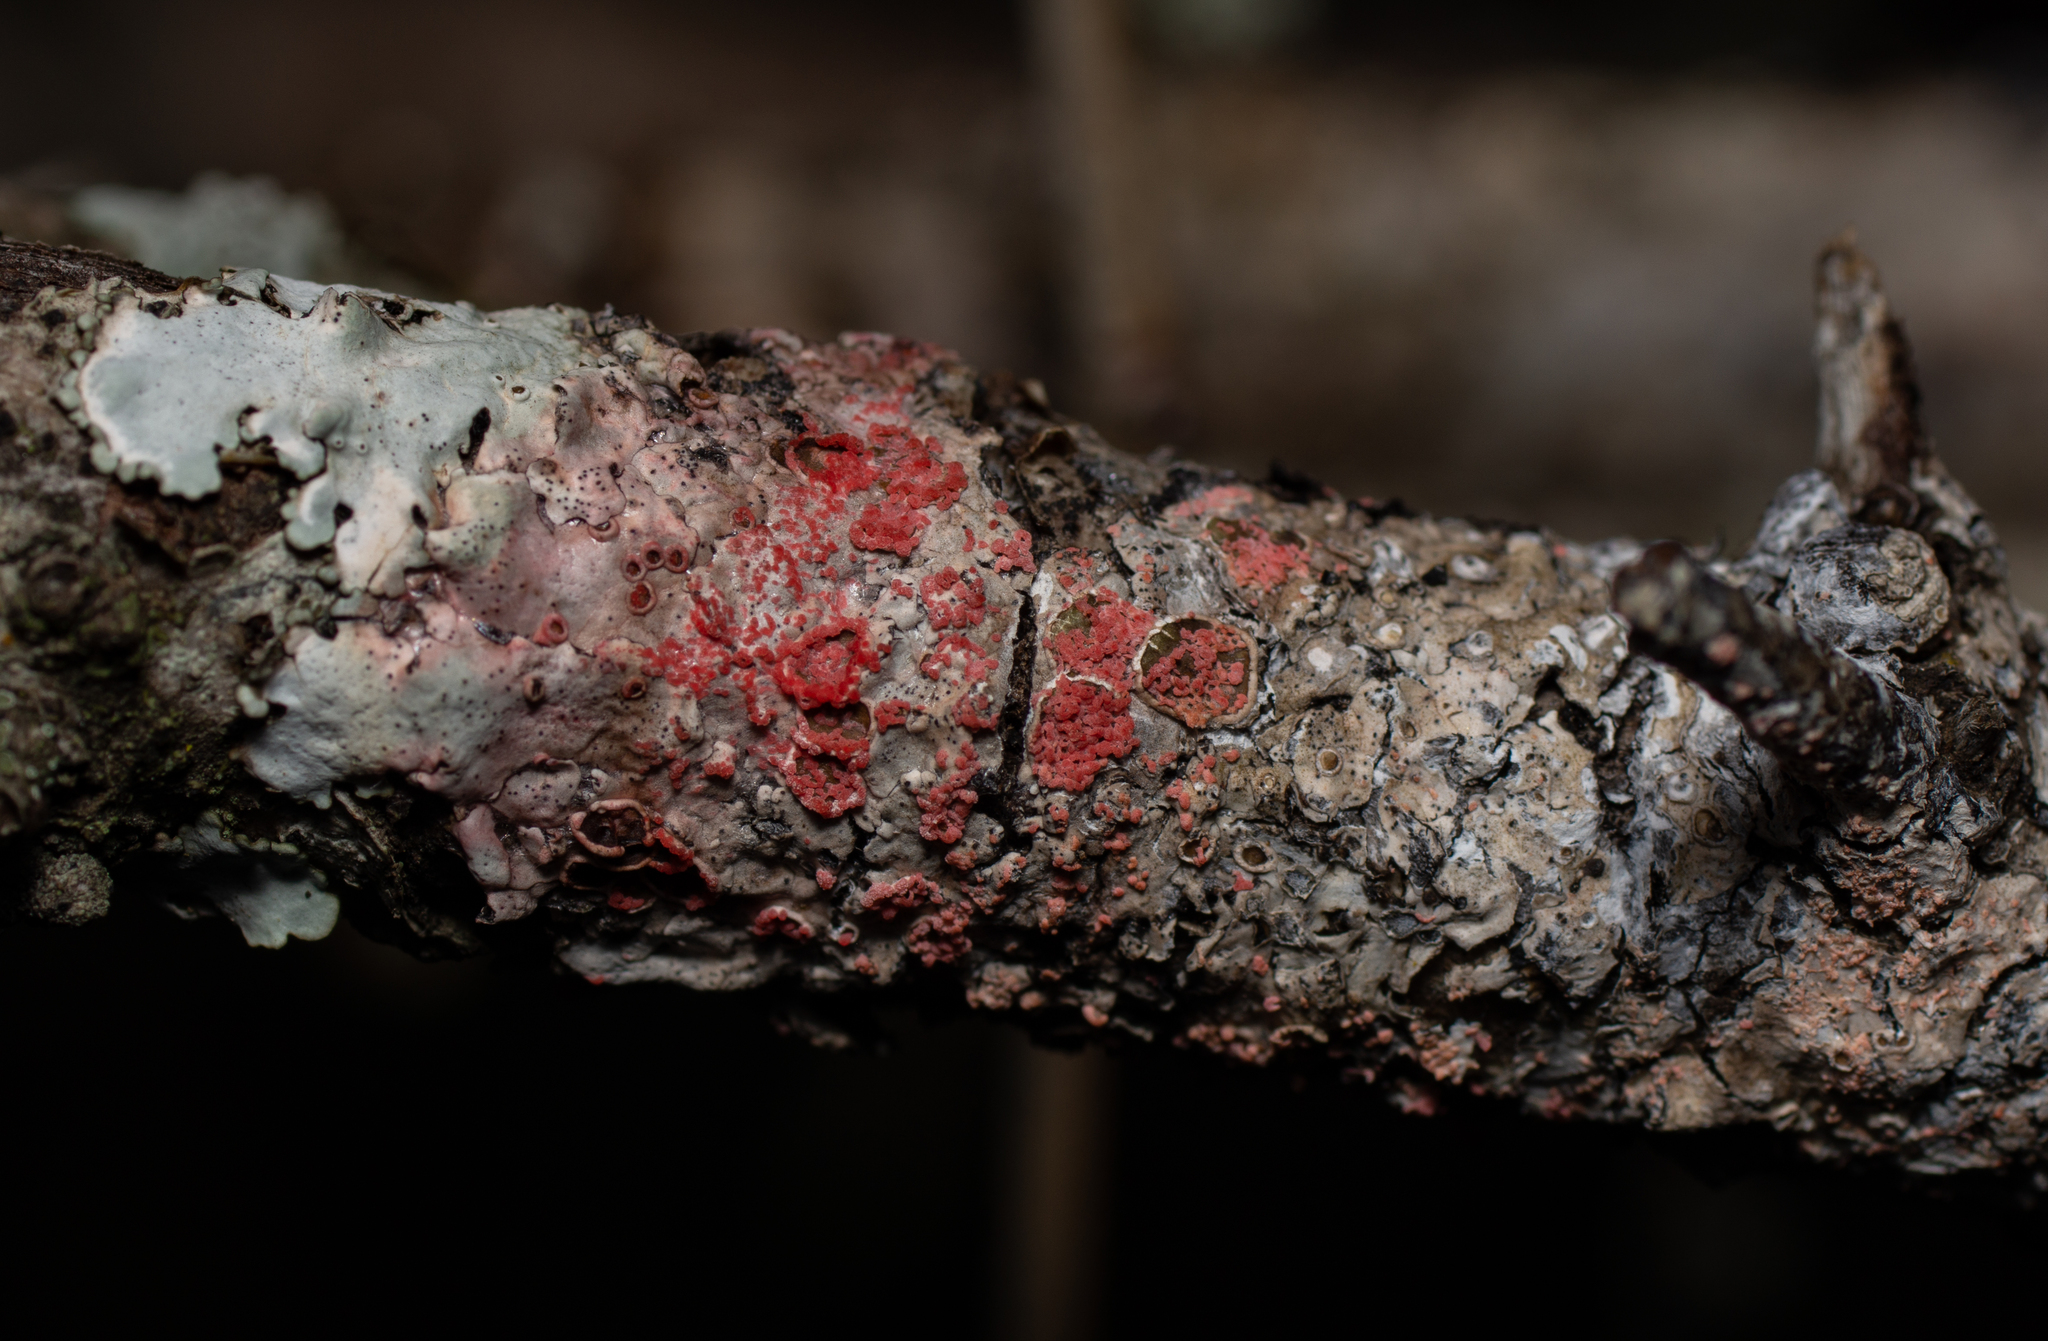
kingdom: Fungi
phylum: Basidiomycota
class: Agaricomycetes
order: Corticiales
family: Corticiaceae
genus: Marchandiomyces
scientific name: Marchandiomyces corallinus
